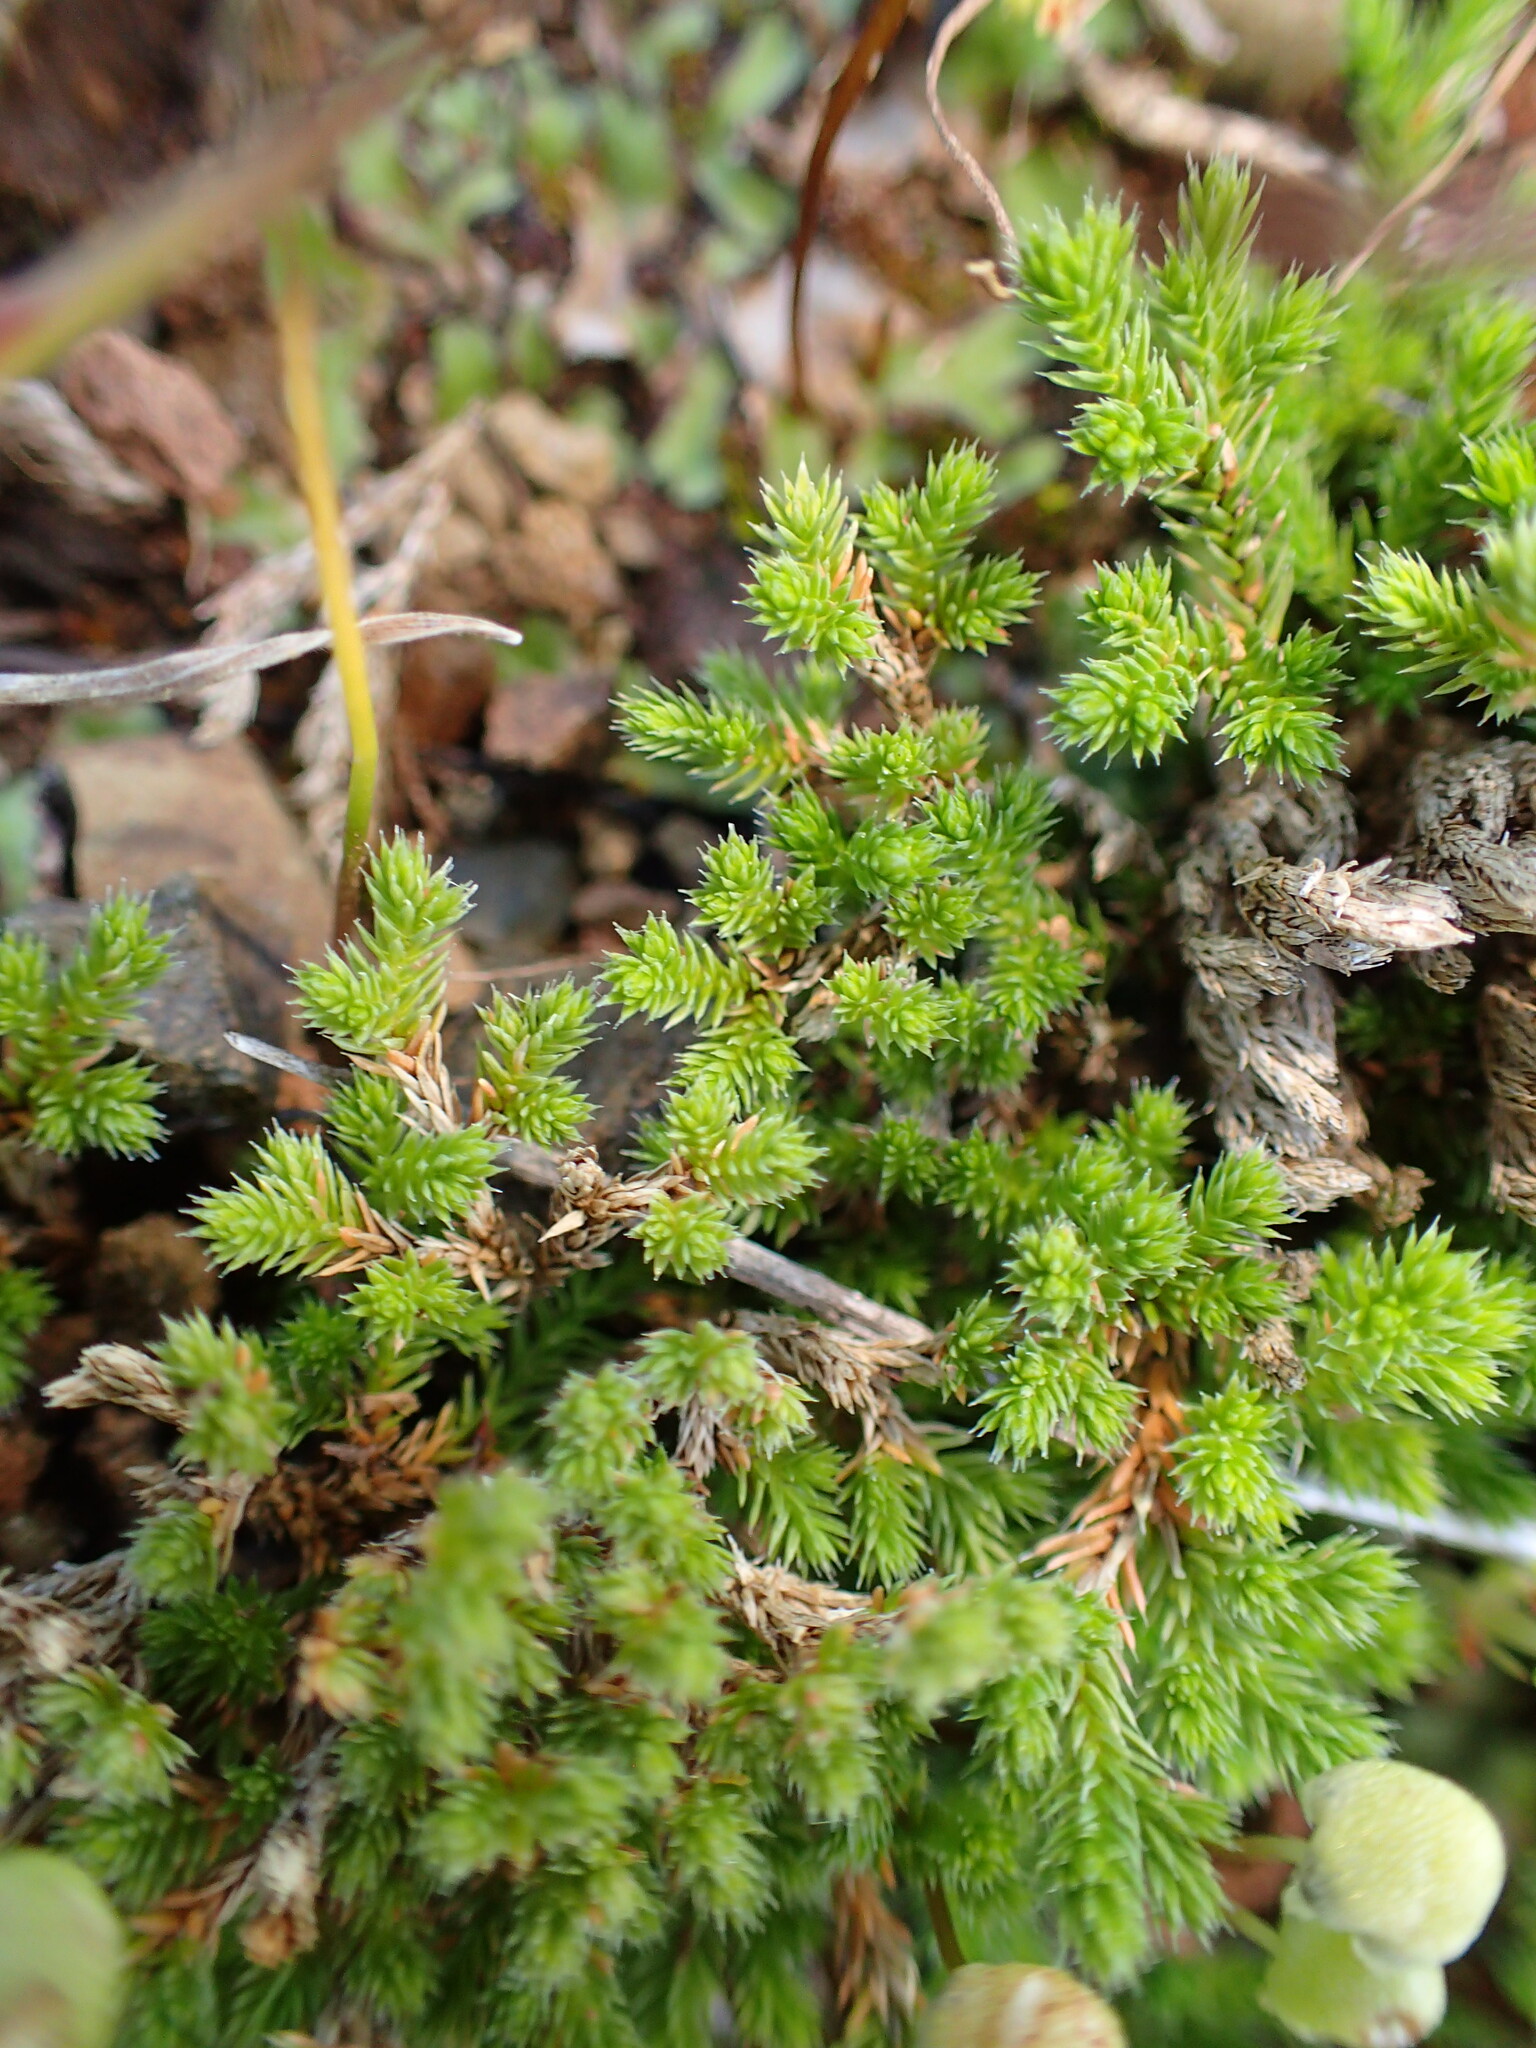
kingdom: Plantae
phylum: Tracheophyta
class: Lycopodiopsida
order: Selaginellales
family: Selaginellaceae
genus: Selaginella
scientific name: Selaginella bigelovii
